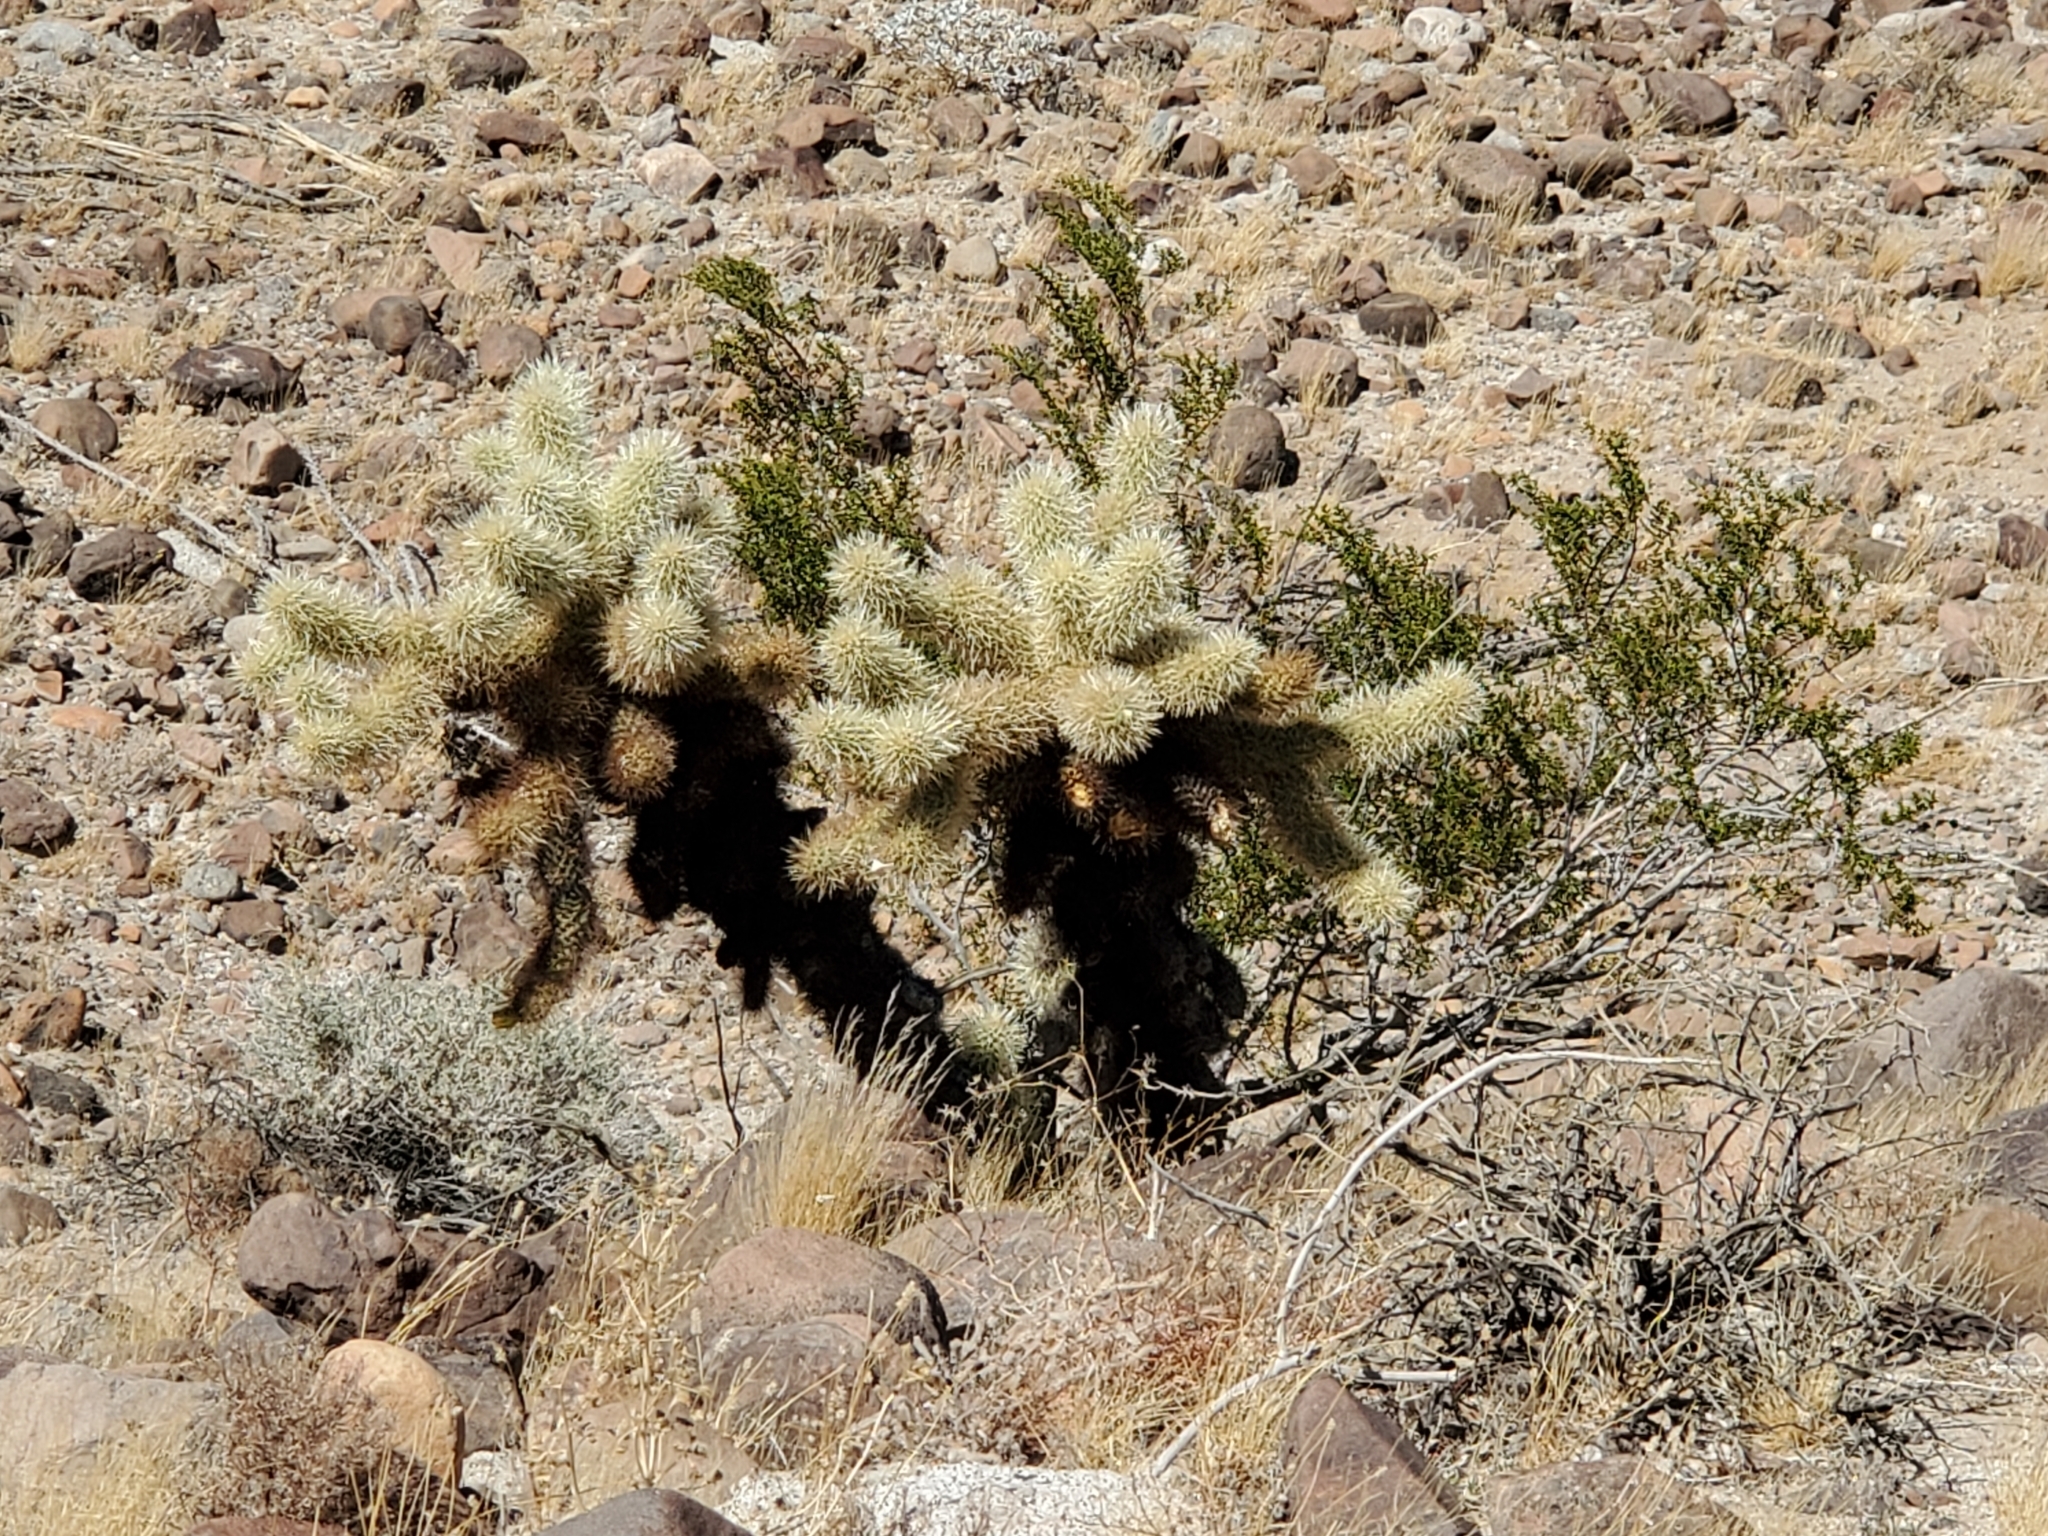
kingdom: Plantae
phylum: Tracheophyta
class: Magnoliopsida
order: Caryophyllales
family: Cactaceae
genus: Cylindropuntia
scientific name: Cylindropuntia fosbergii
